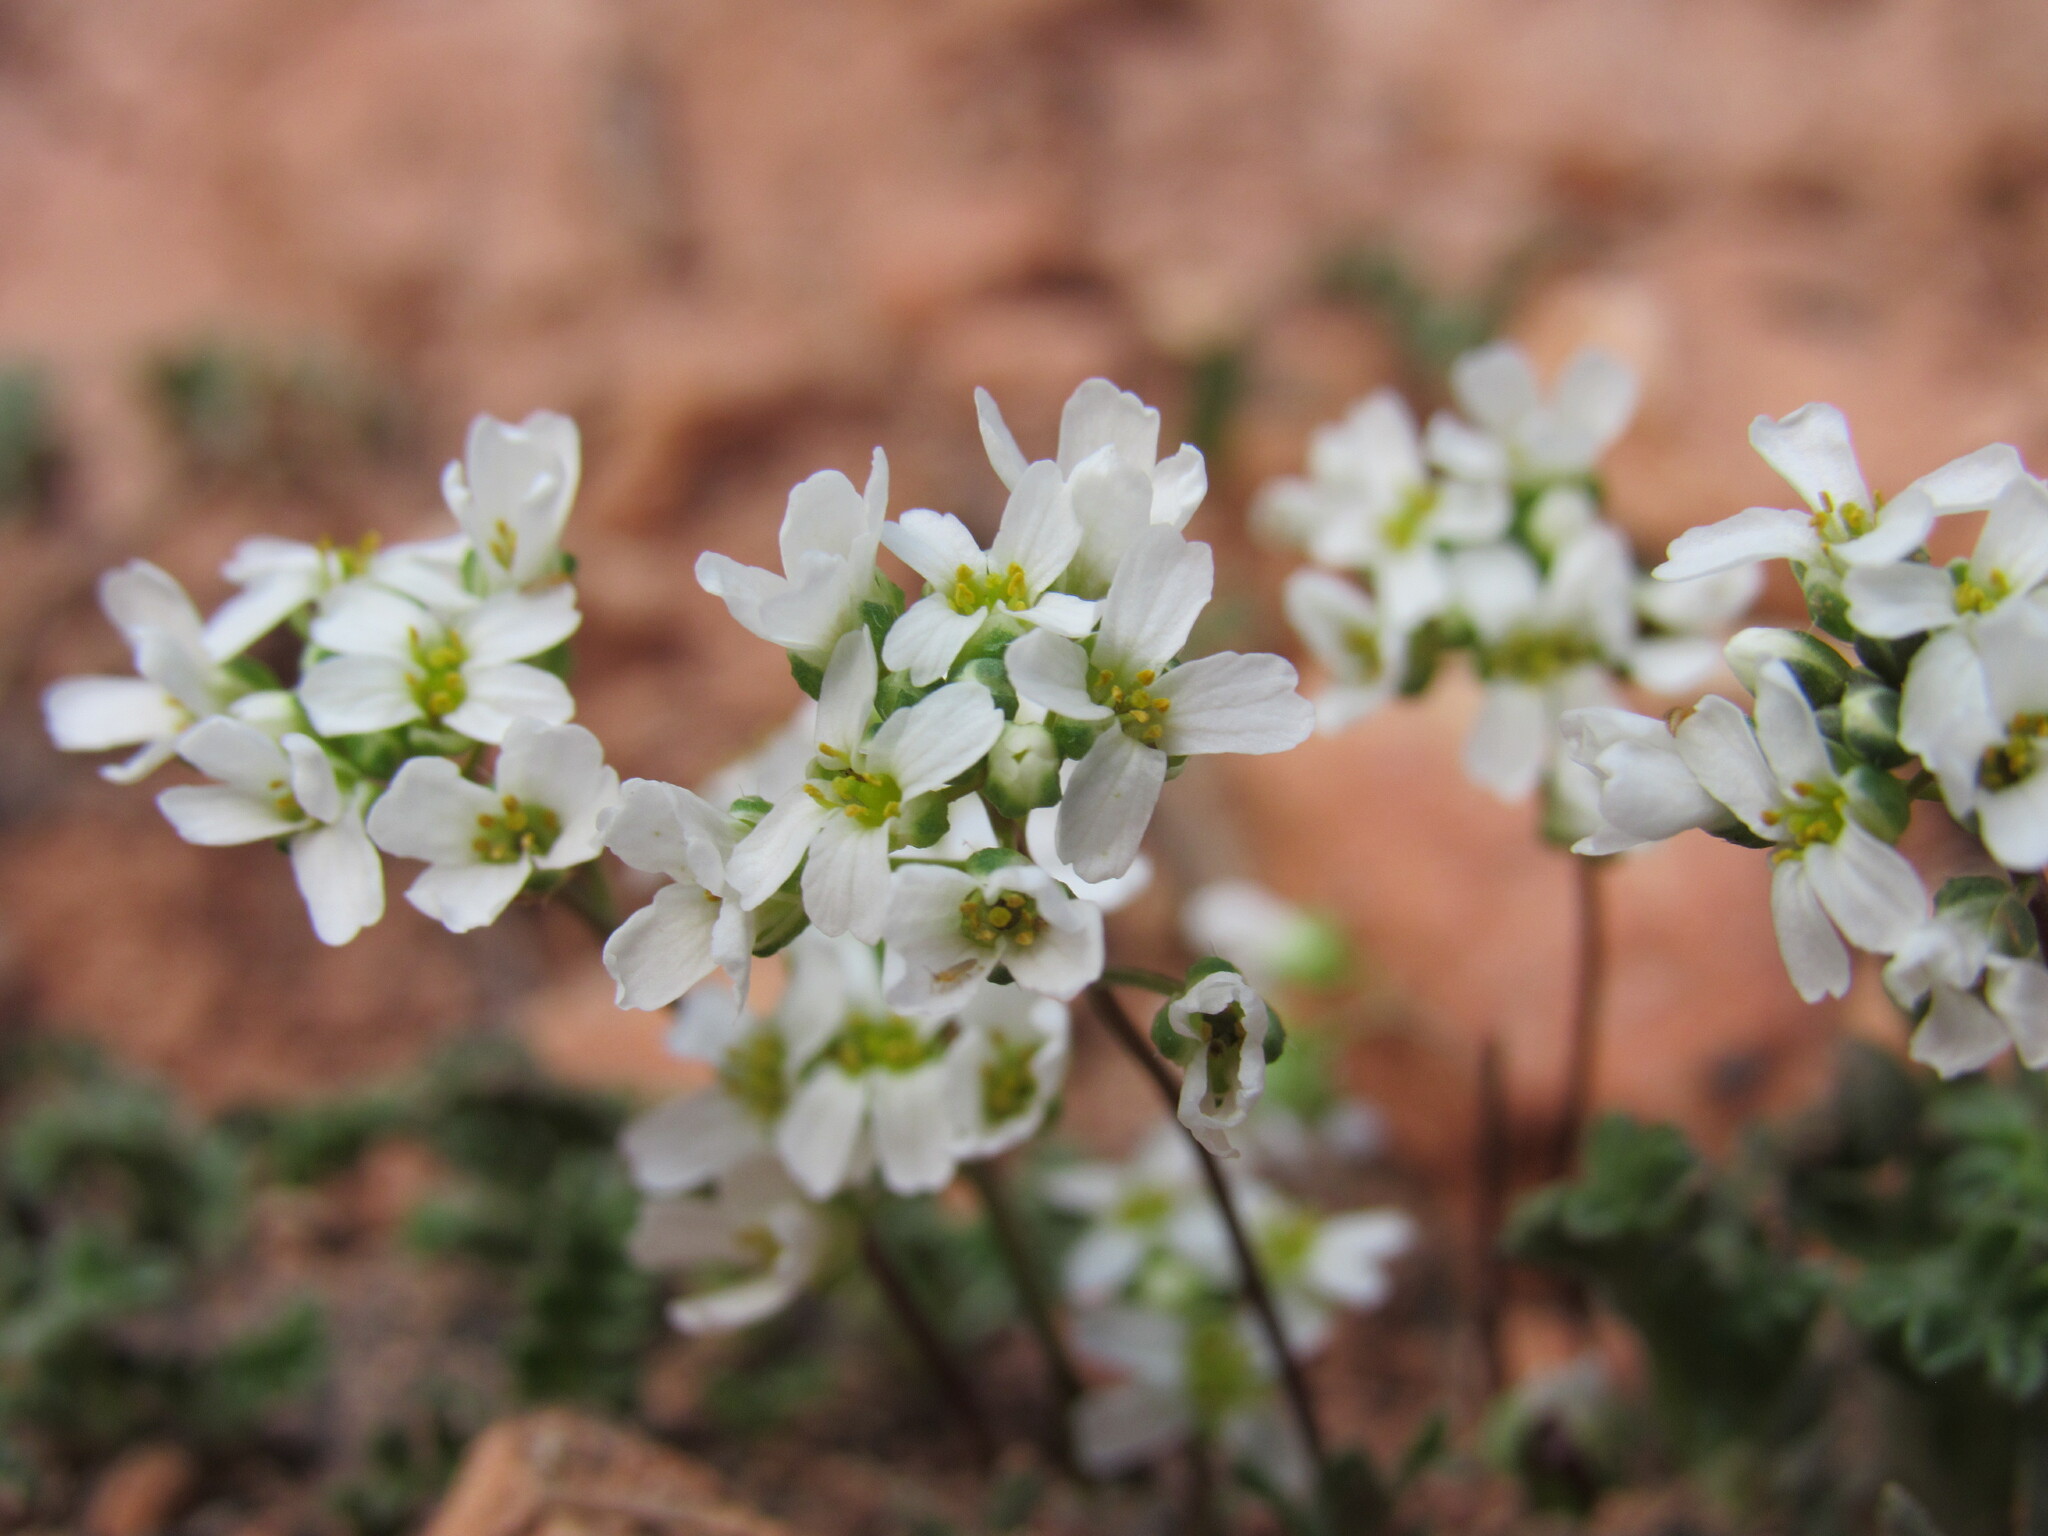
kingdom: Plantae
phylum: Tracheophyta
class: Magnoliopsida
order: Brassicales
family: Brassicaceae
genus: Draba
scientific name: Draba subalpina
